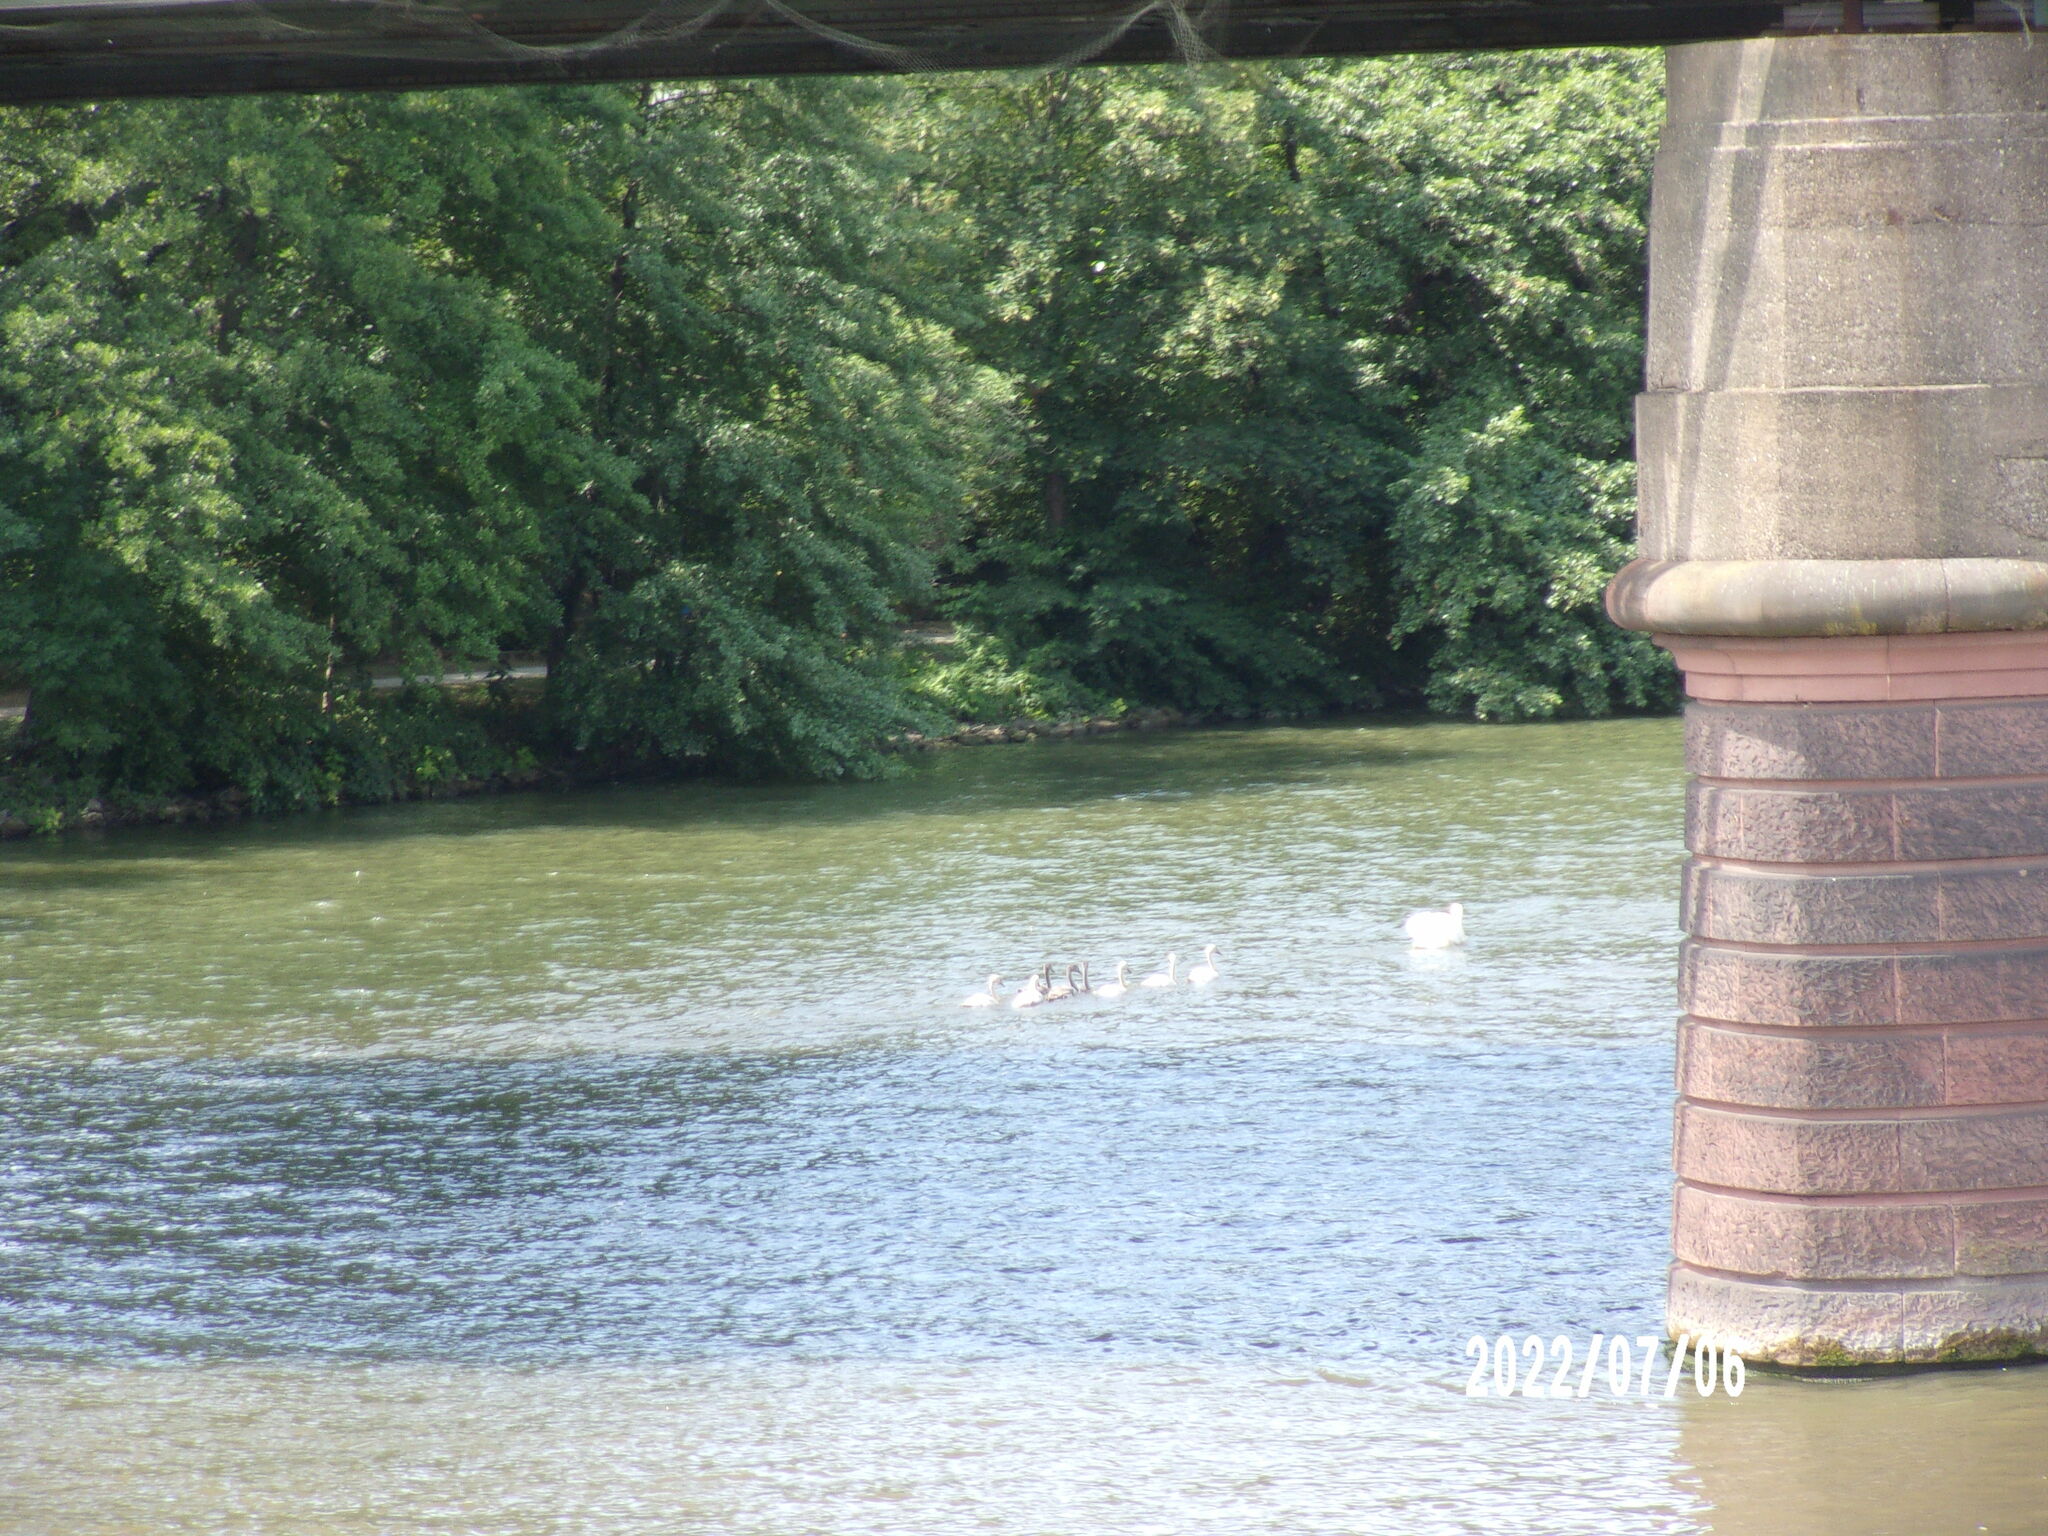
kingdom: Animalia
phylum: Chordata
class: Aves
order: Anseriformes
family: Anatidae
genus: Cygnus
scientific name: Cygnus olor
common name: Mute swan
